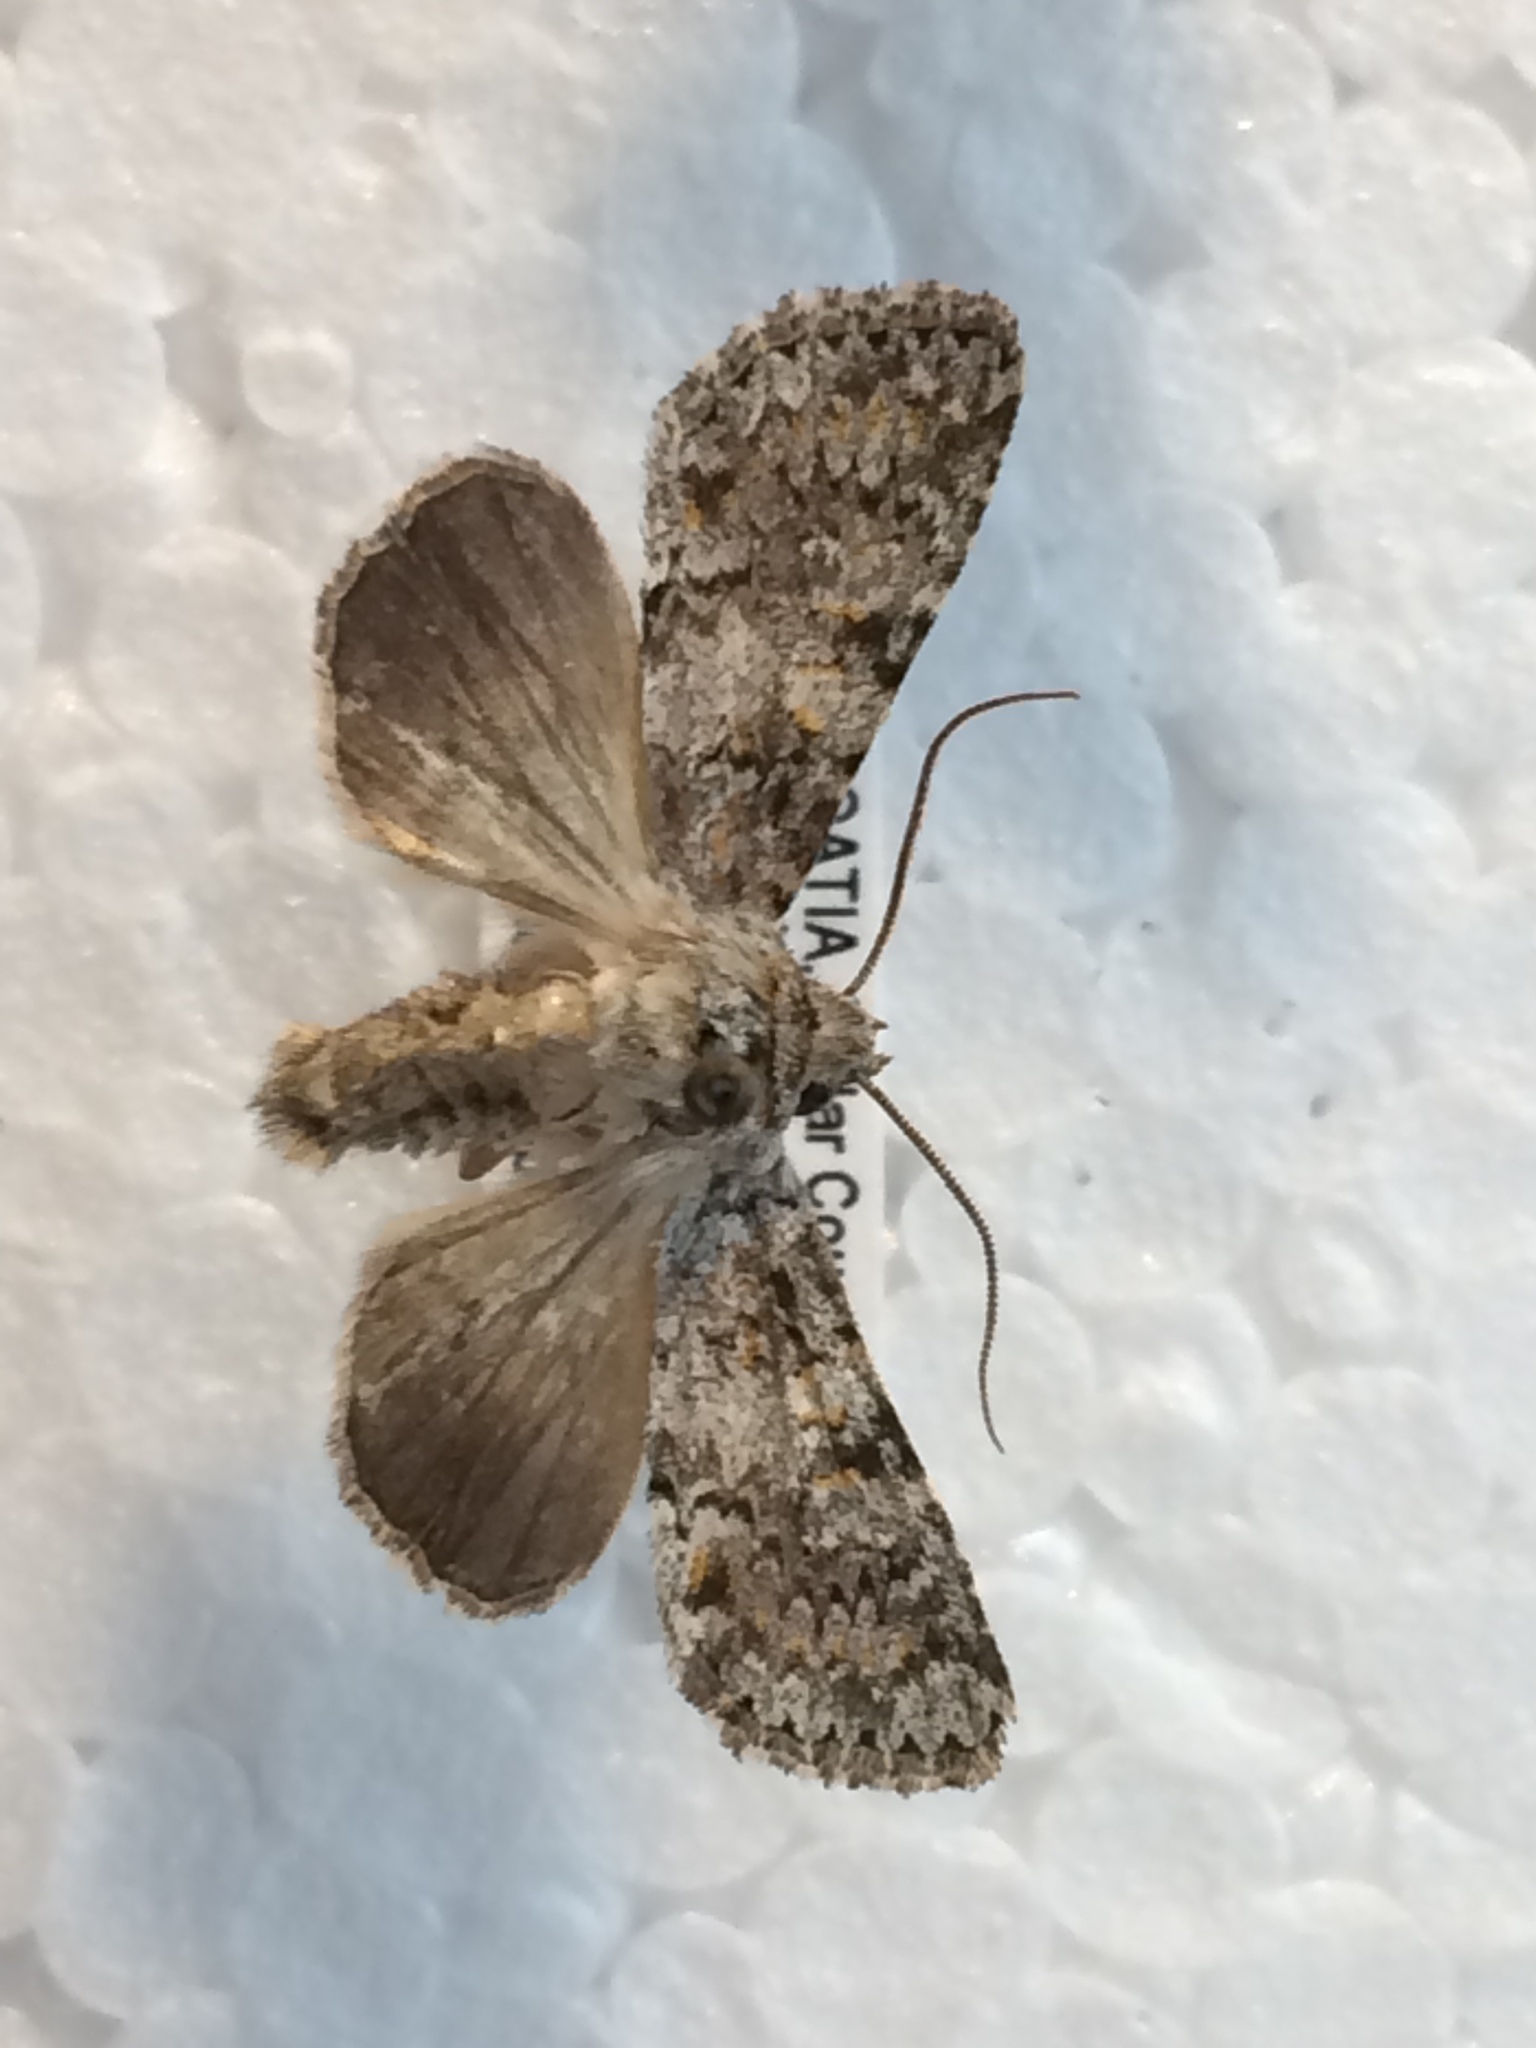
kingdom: Animalia
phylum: Arthropoda
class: Insecta
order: Lepidoptera
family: Noctuidae
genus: Hadena
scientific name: Hadena luteocincta
